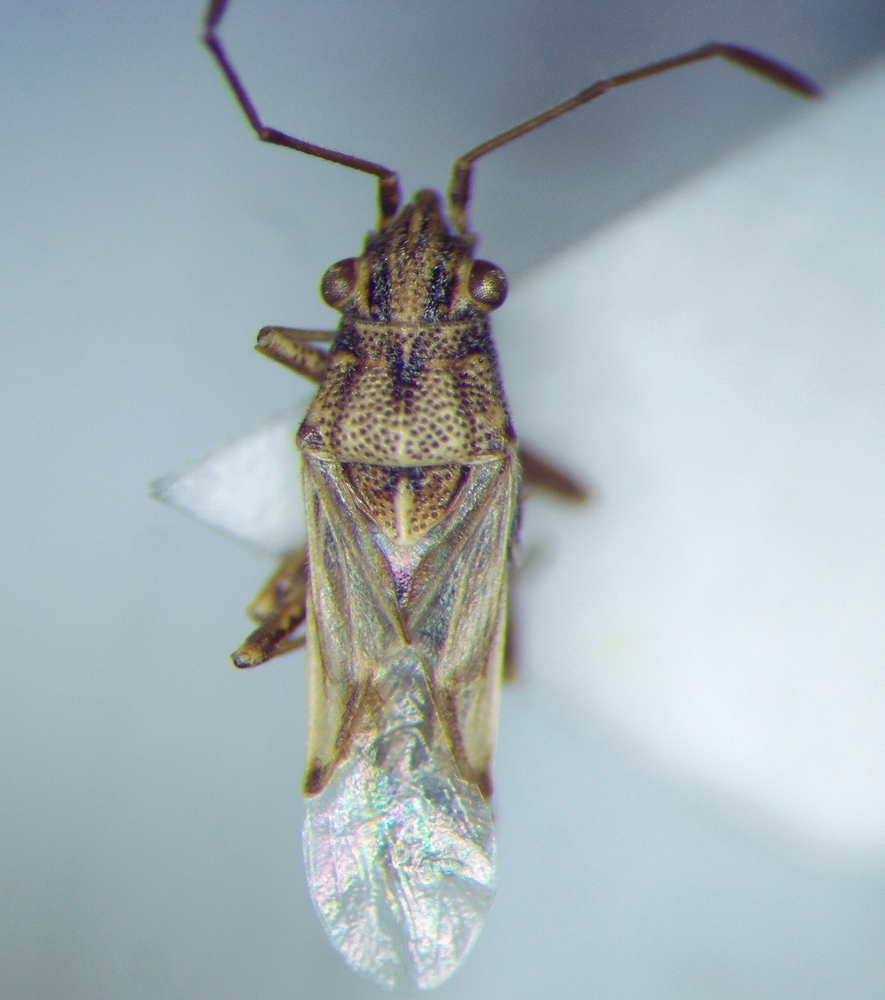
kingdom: Animalia
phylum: Arthropoda
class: Insecta
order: Hemiptera
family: Lygaeidae
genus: Nysius
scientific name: Nysius helveticus
